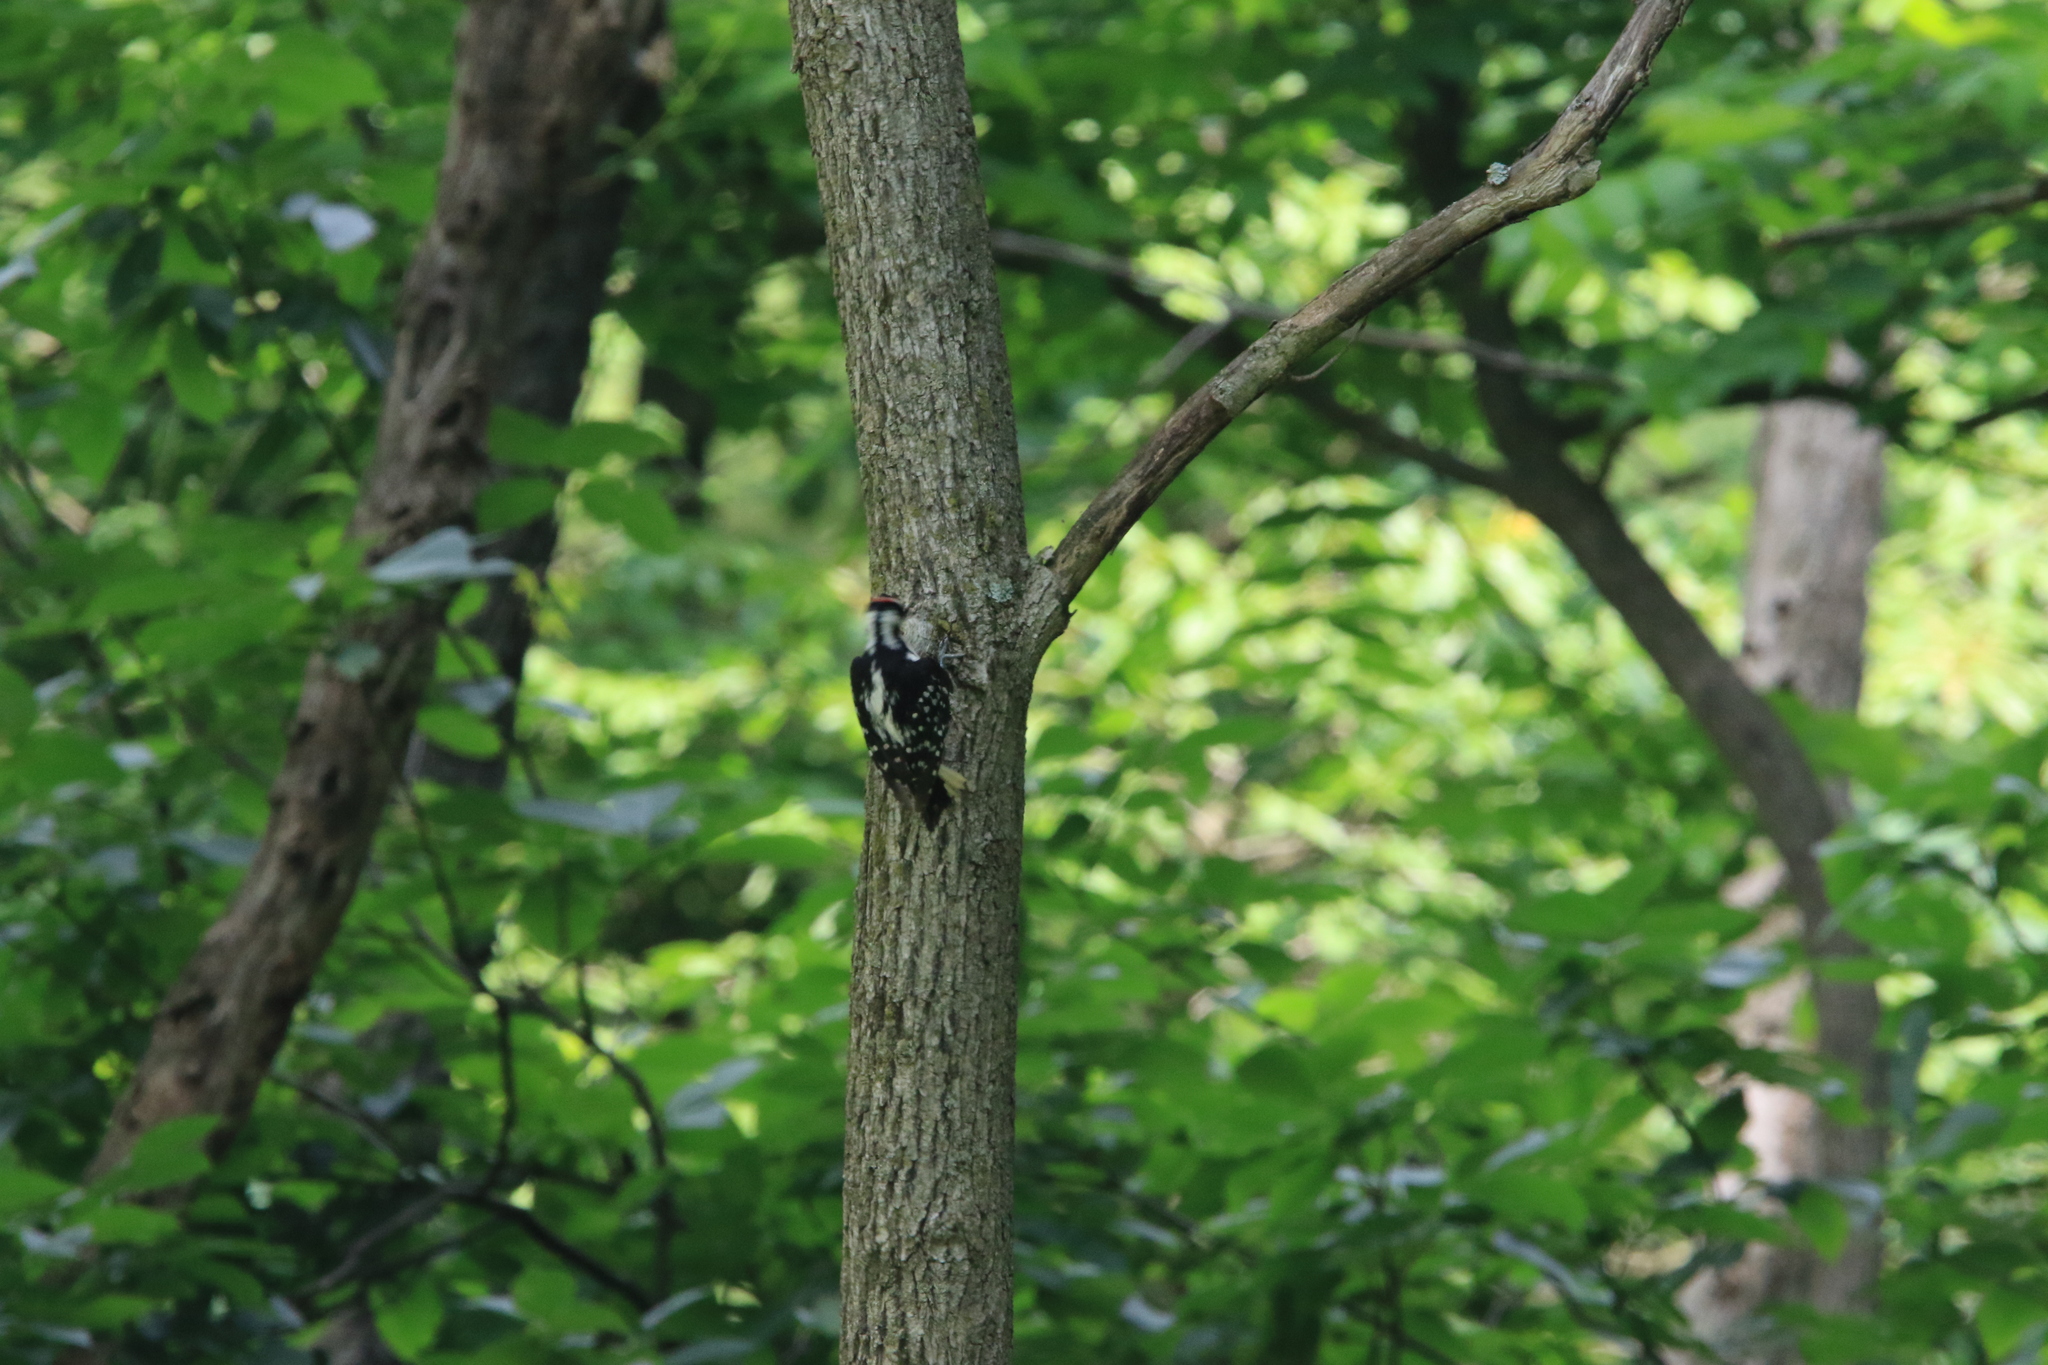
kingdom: Animalia
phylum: Chordata
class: Aves
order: Piciformes
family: Picidae
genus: Leuconotopicus
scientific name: Leuconotopicus villosus
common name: Hairy woodpecker
